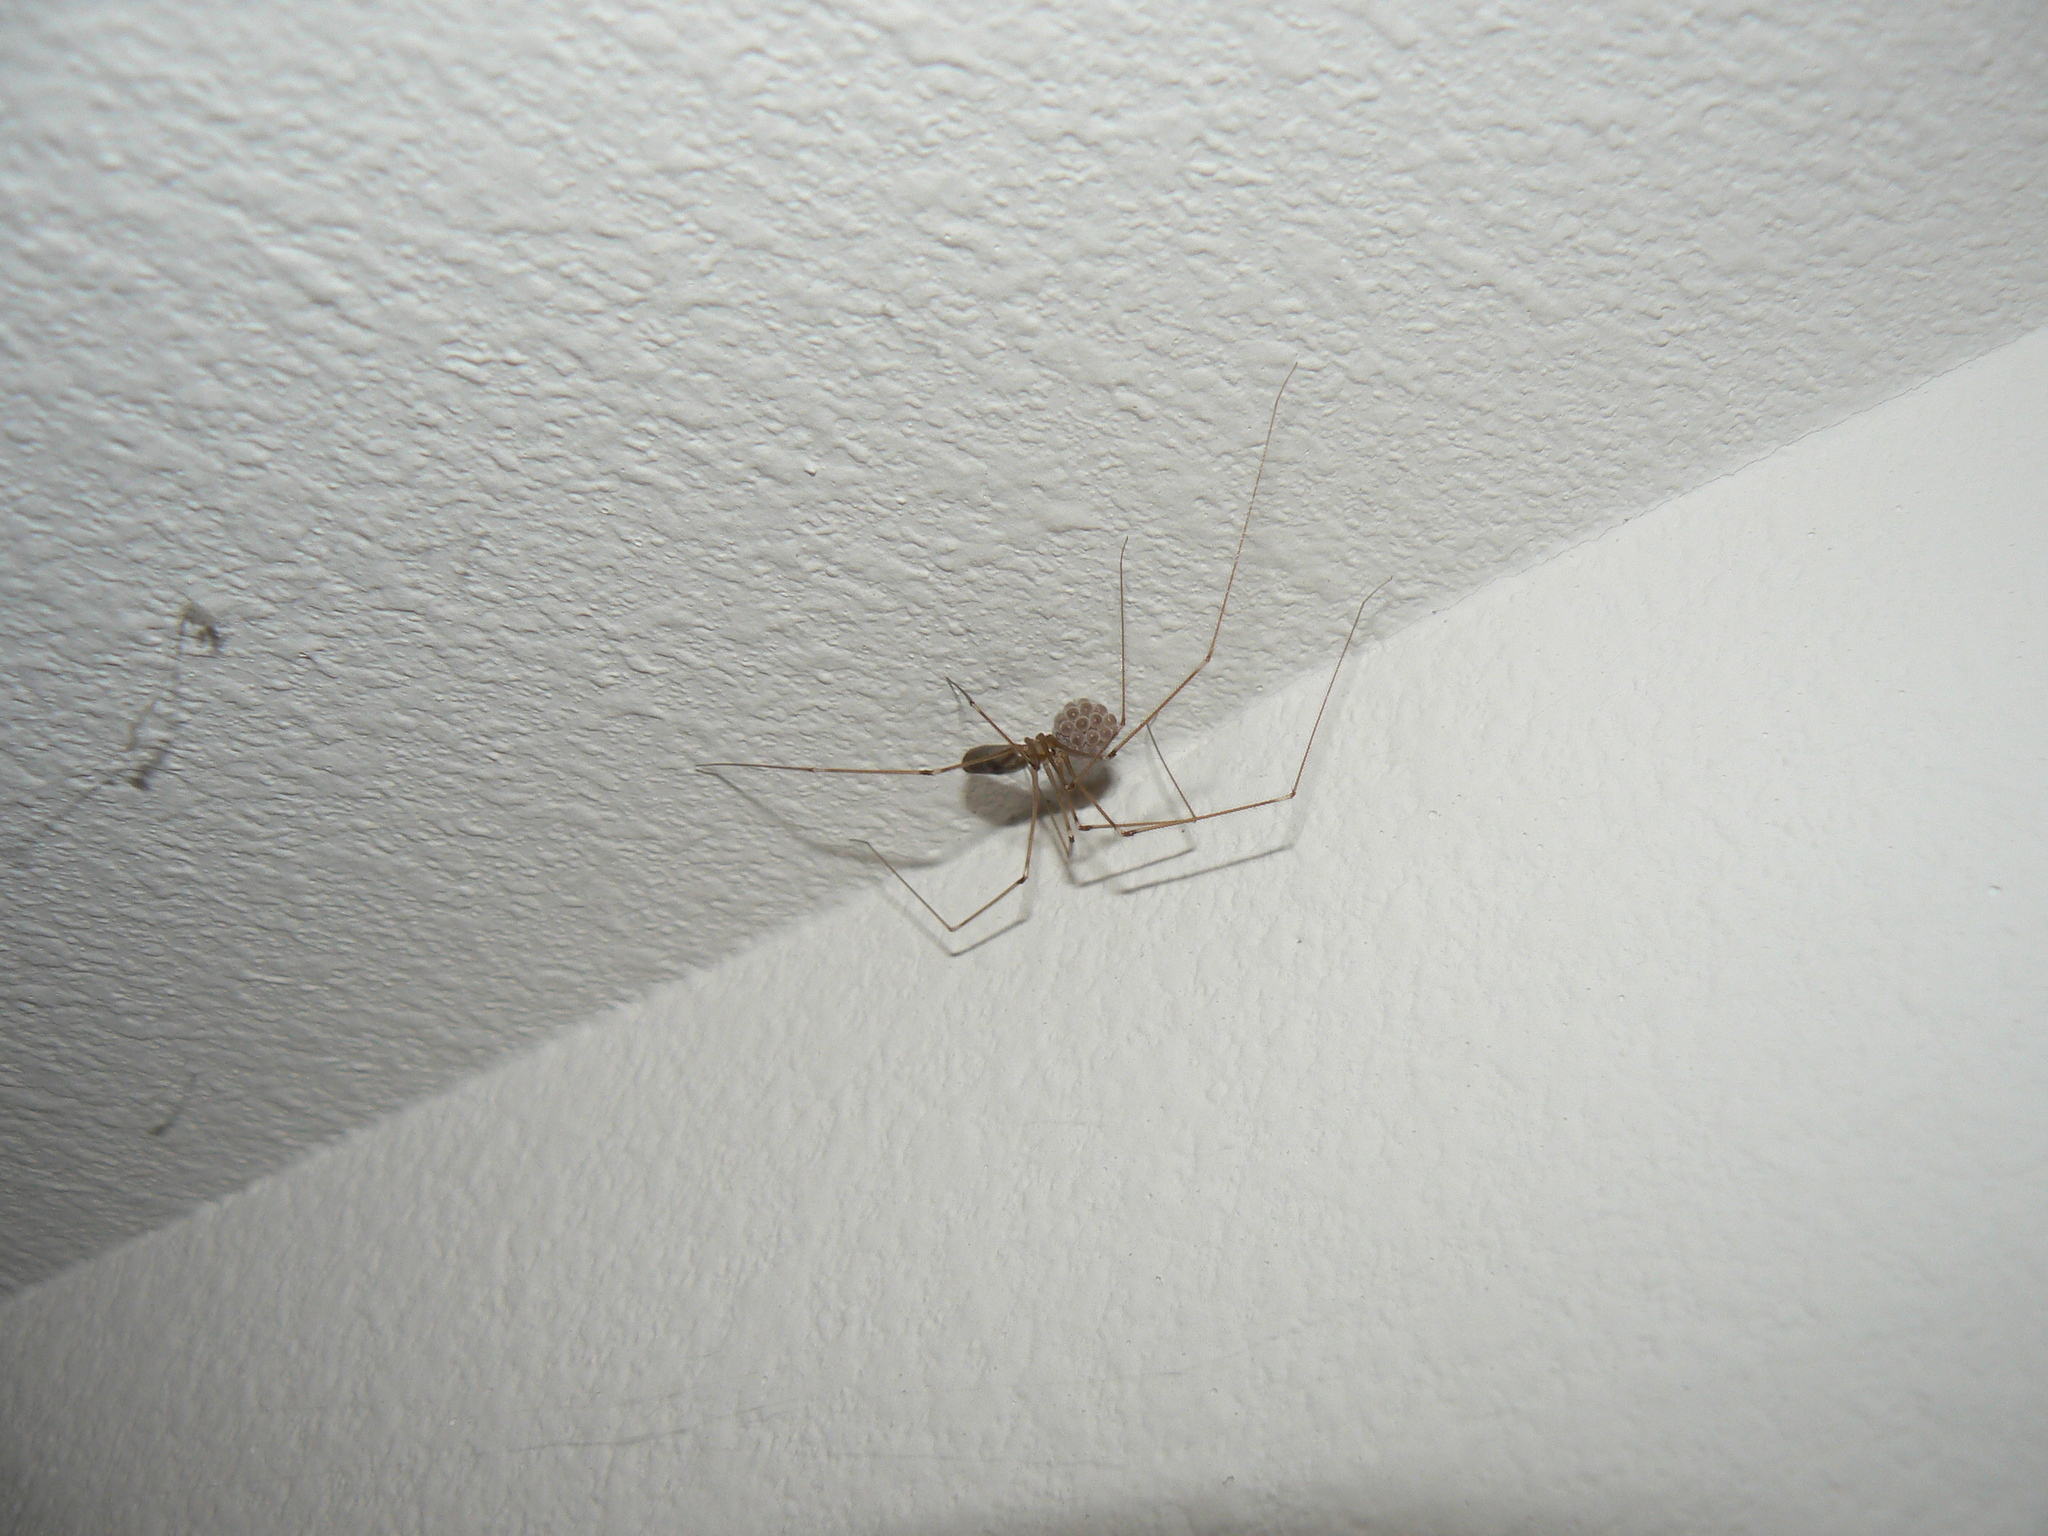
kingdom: Animalia
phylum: Arthropoda
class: Arachnida
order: Araneae
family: Pholcidae
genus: Pholcus
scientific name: Pholcus phalangioides
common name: Longbodied cellar spider
